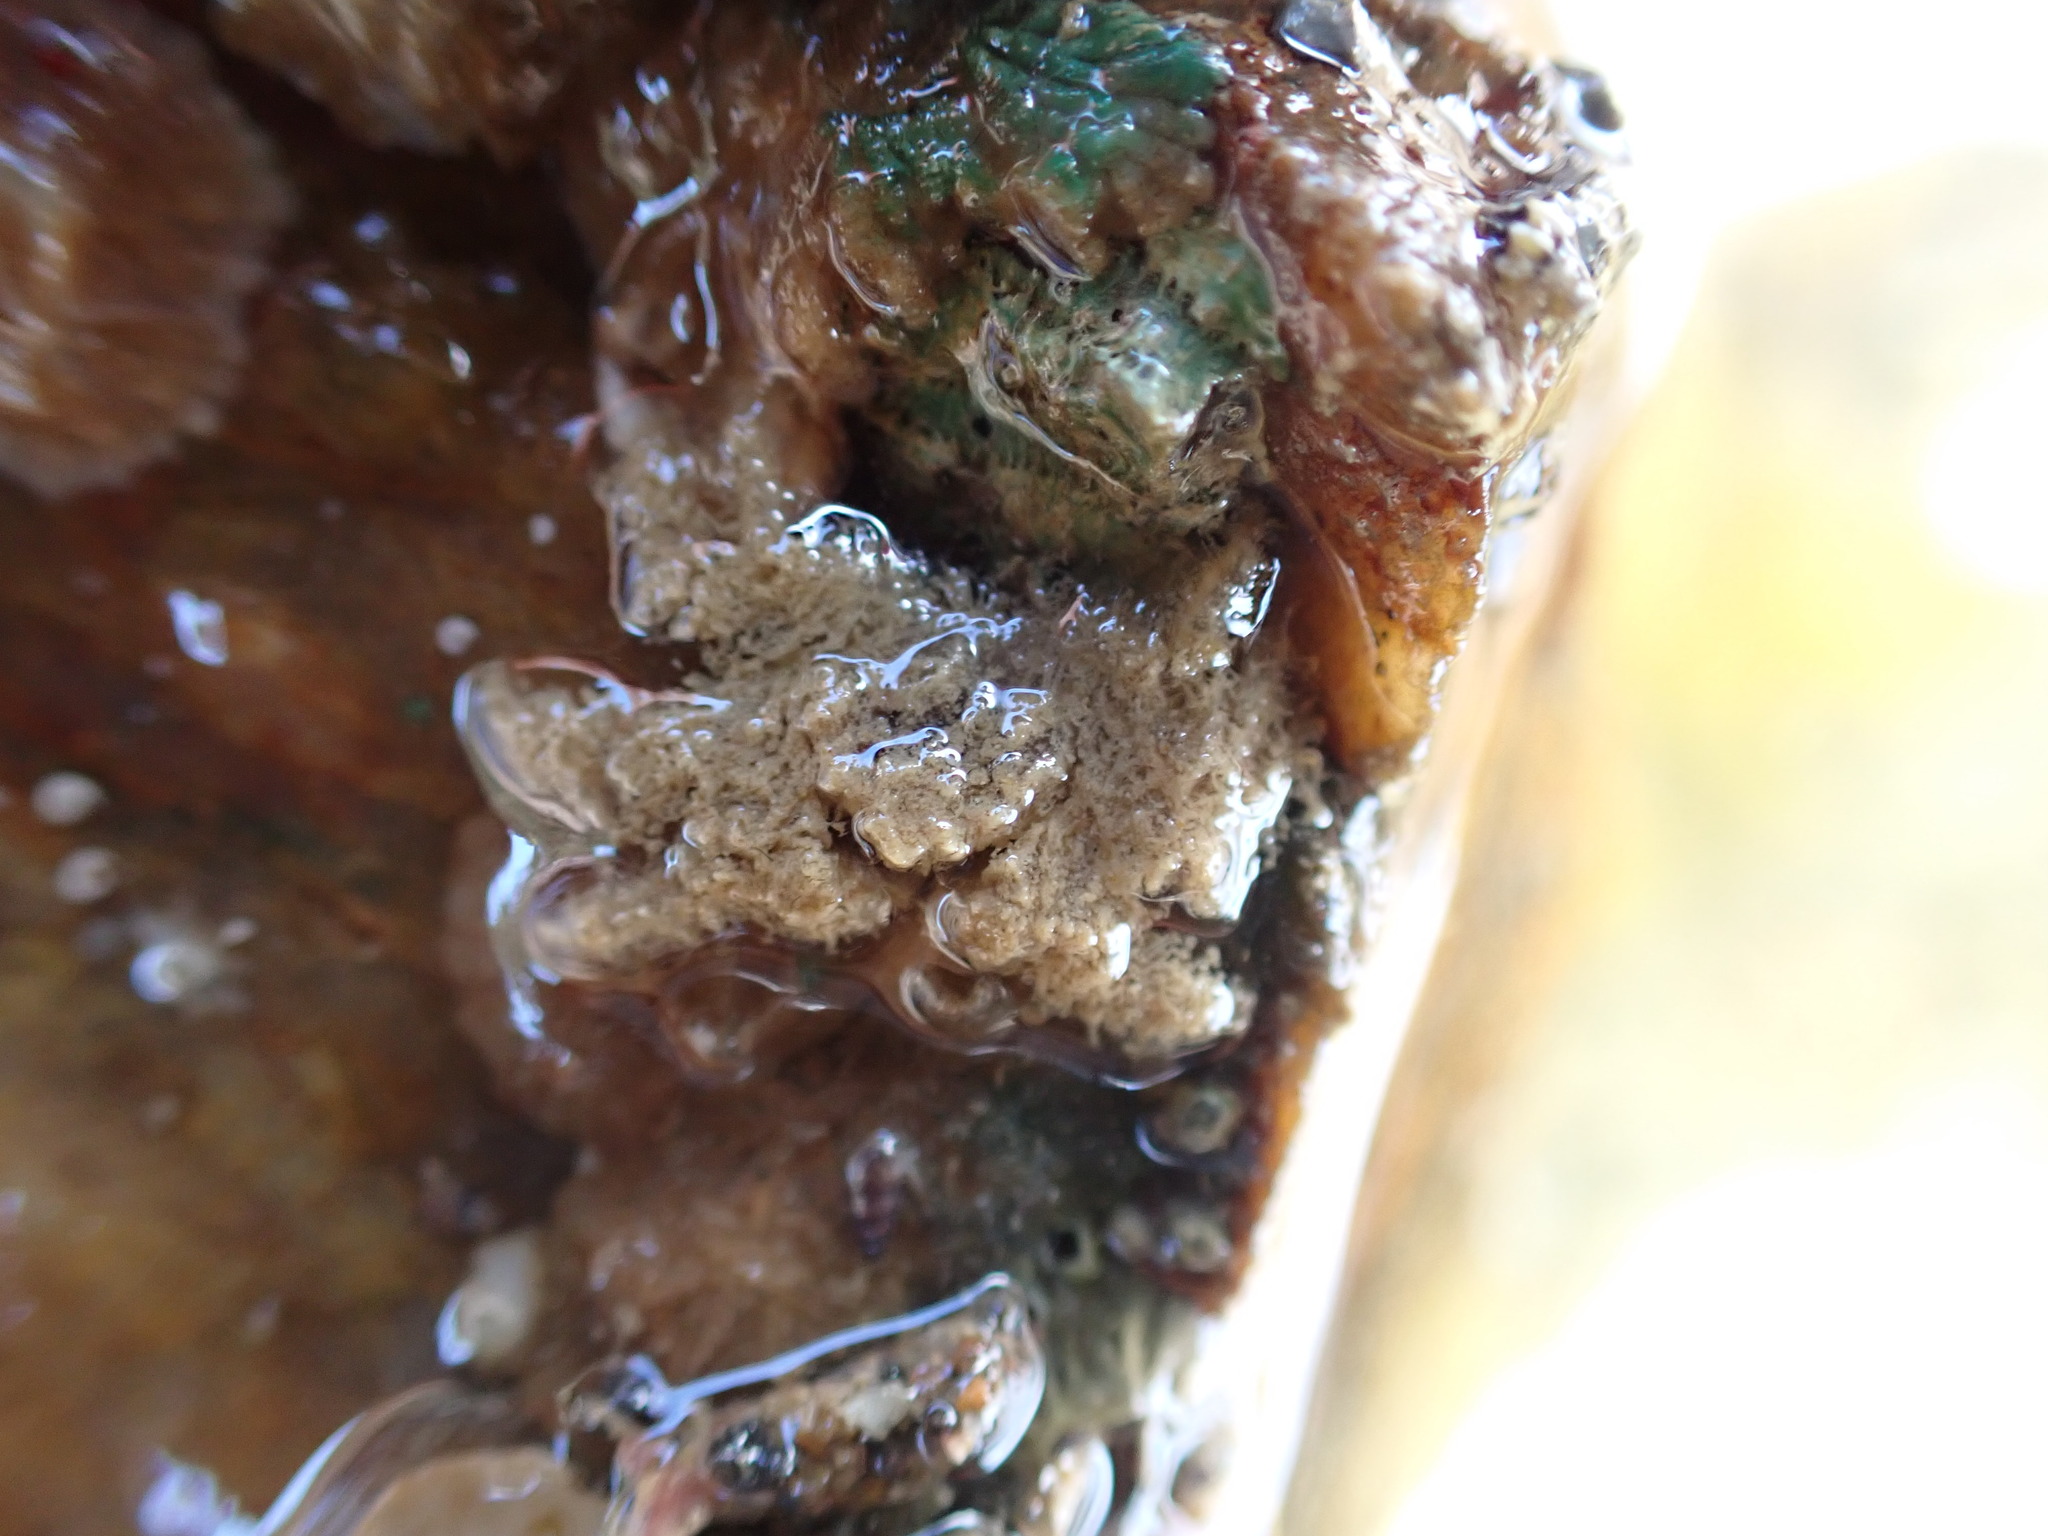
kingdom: Animalia
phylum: Arthropoda
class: Malacostraca
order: Decapoda
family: Hymenosomatidae
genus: Neohymenicus
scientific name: Neohymenicus pubescens
